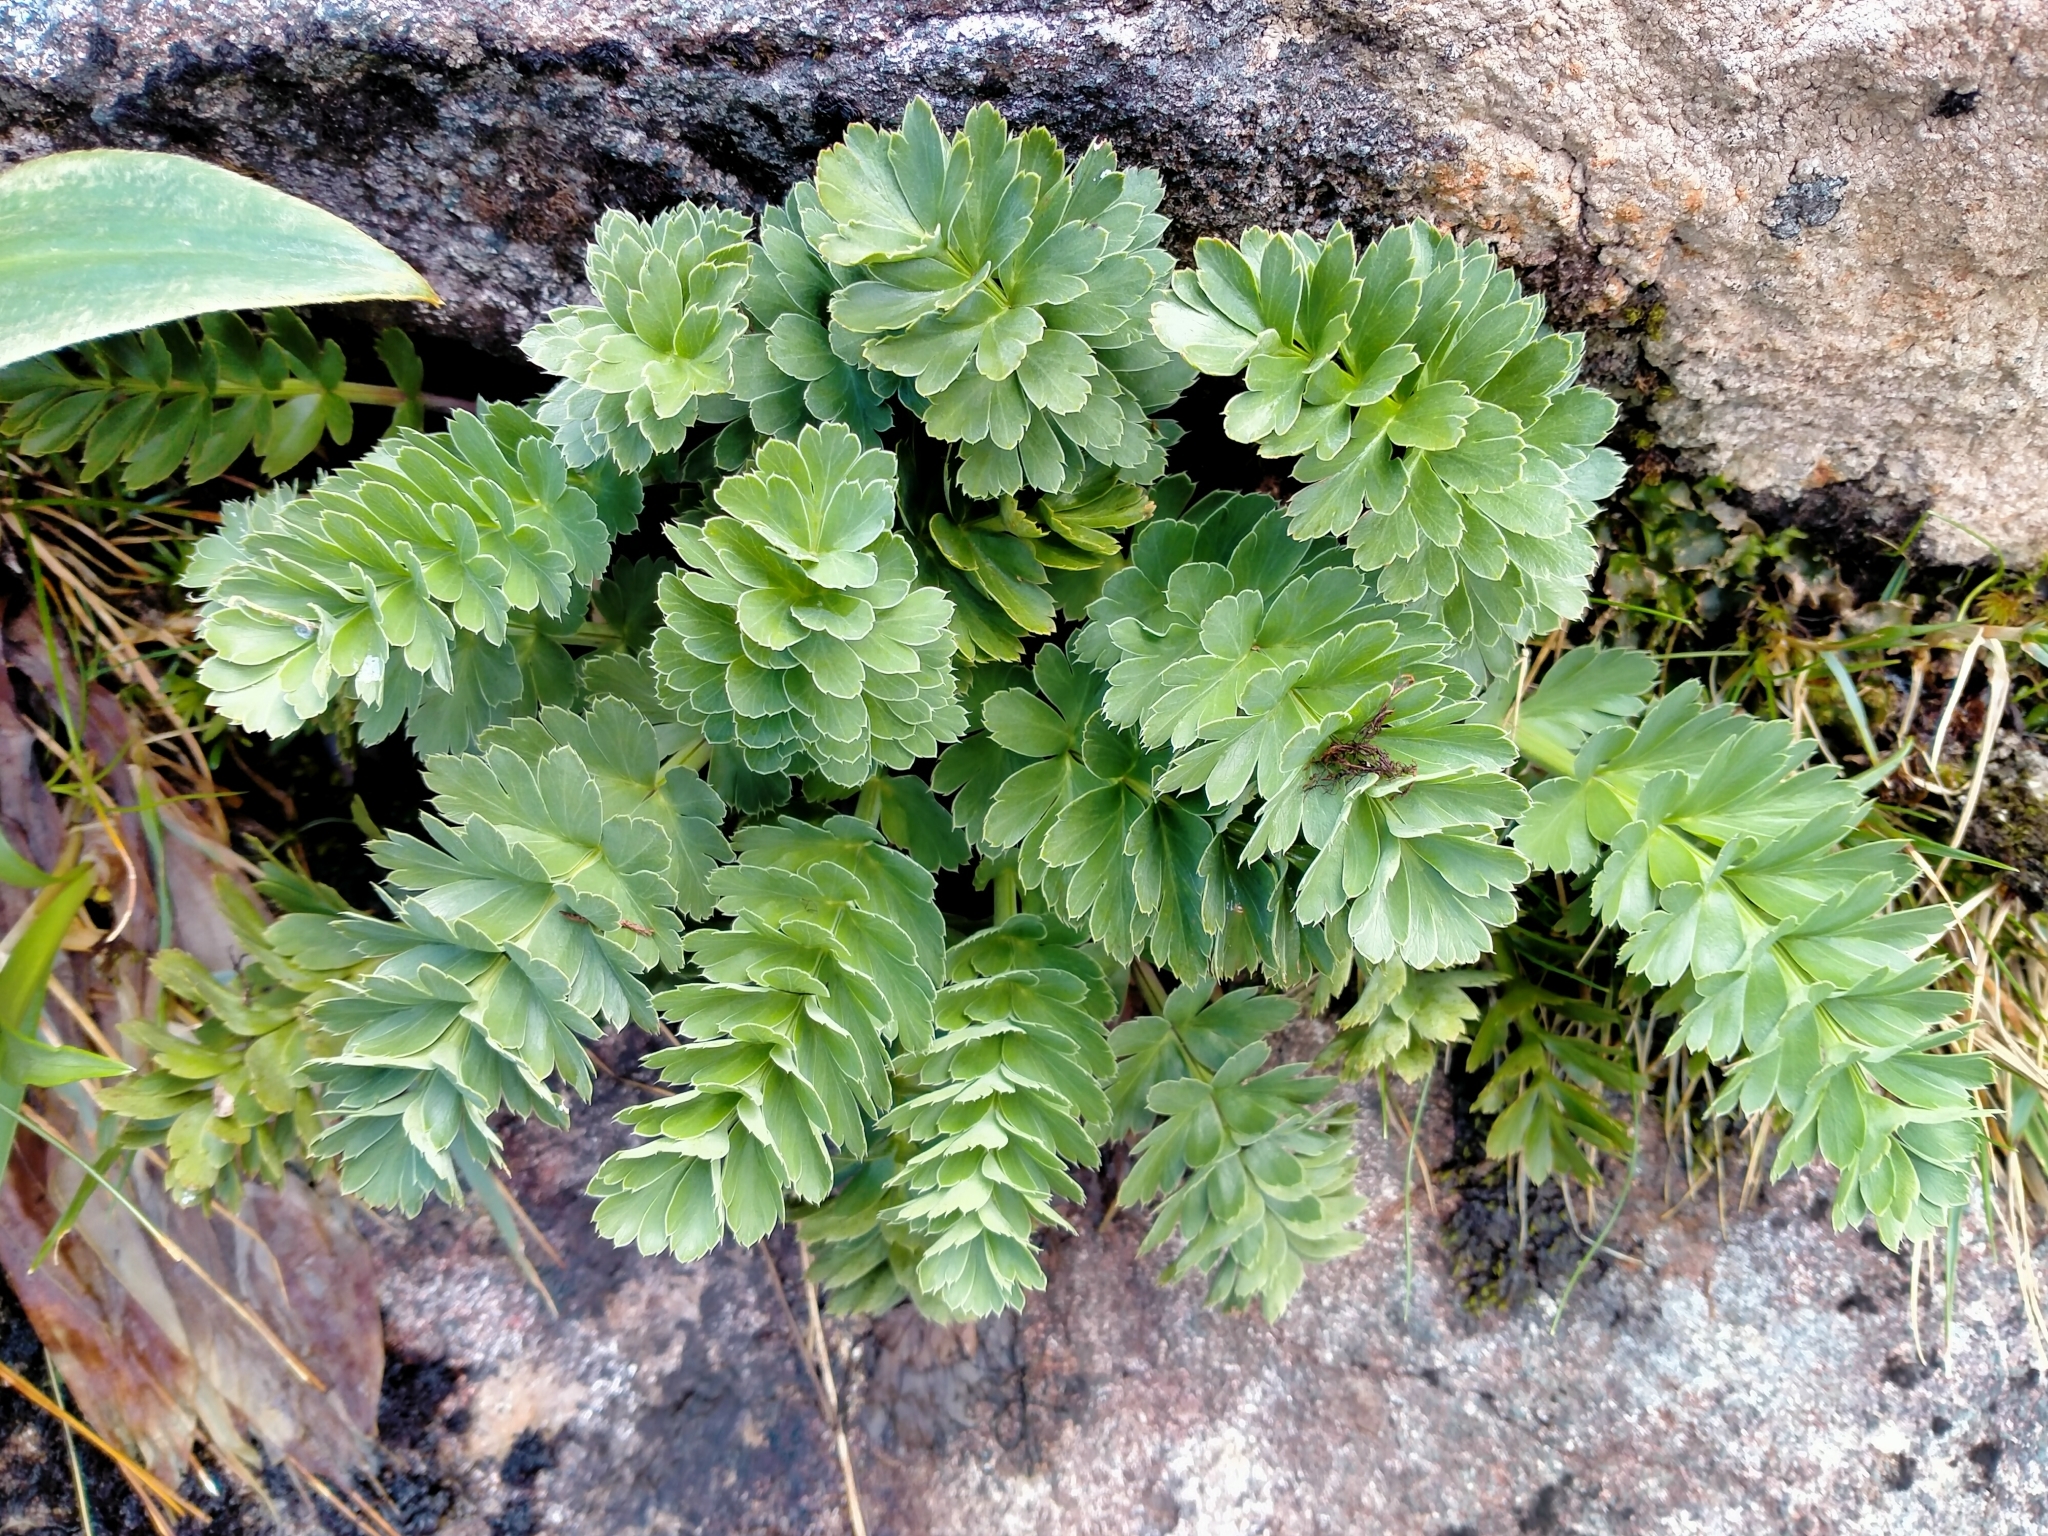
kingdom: Plantae
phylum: Tracheophyta
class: Magnoliopsida
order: Apiales
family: Apiaceae
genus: Anisotome
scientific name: Anisotome pilifera
